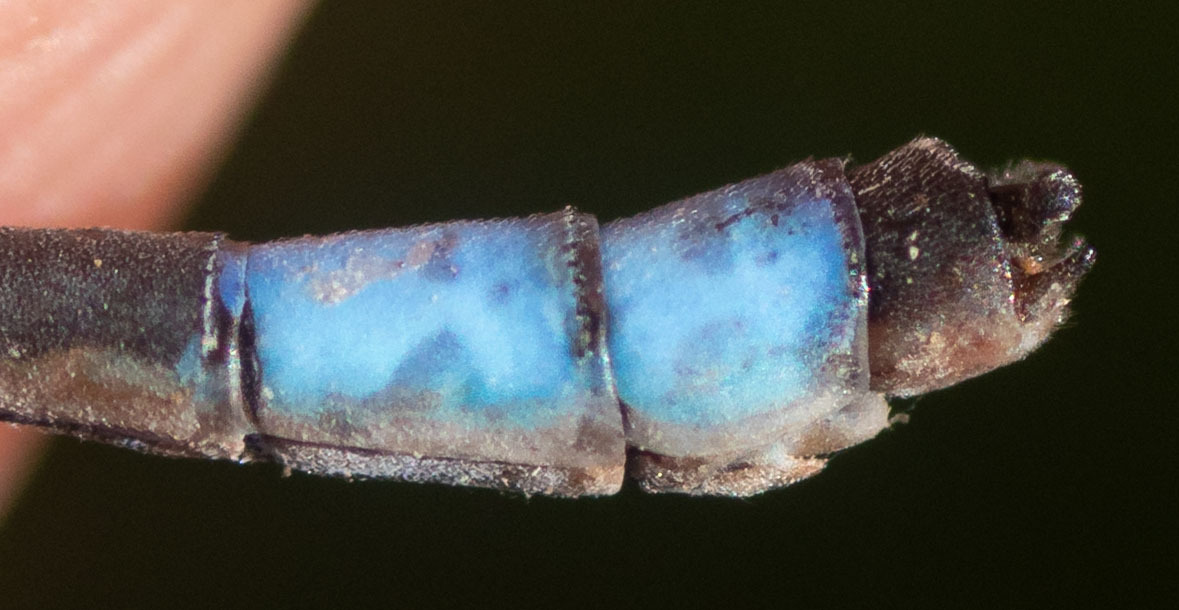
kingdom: Animalia
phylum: Arthropoda
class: Insecta
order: Odonata
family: Coenagrionidae
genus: Enallagma
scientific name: Enallagma praevarum
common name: Arroyo bluet
